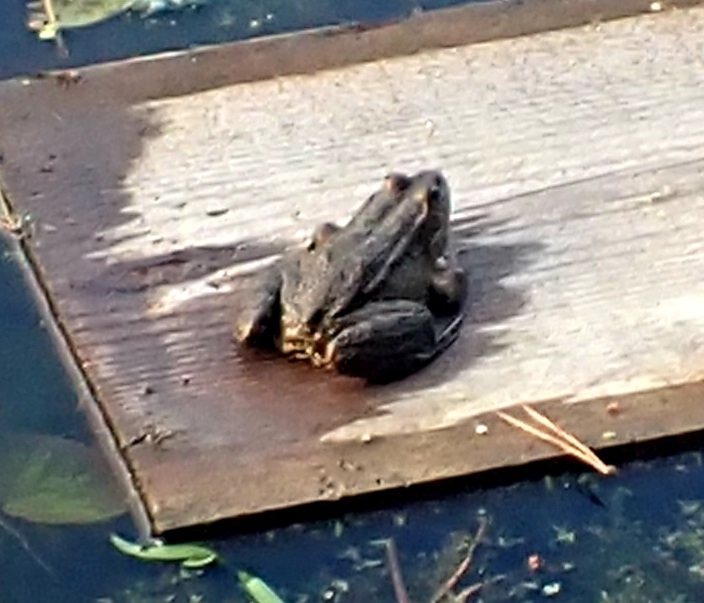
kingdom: Animalia
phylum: Chordata
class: Amphibia
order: Anura
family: Ranidae
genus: Pelophylax
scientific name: Pelophylax ridibundus
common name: Marsh frog
